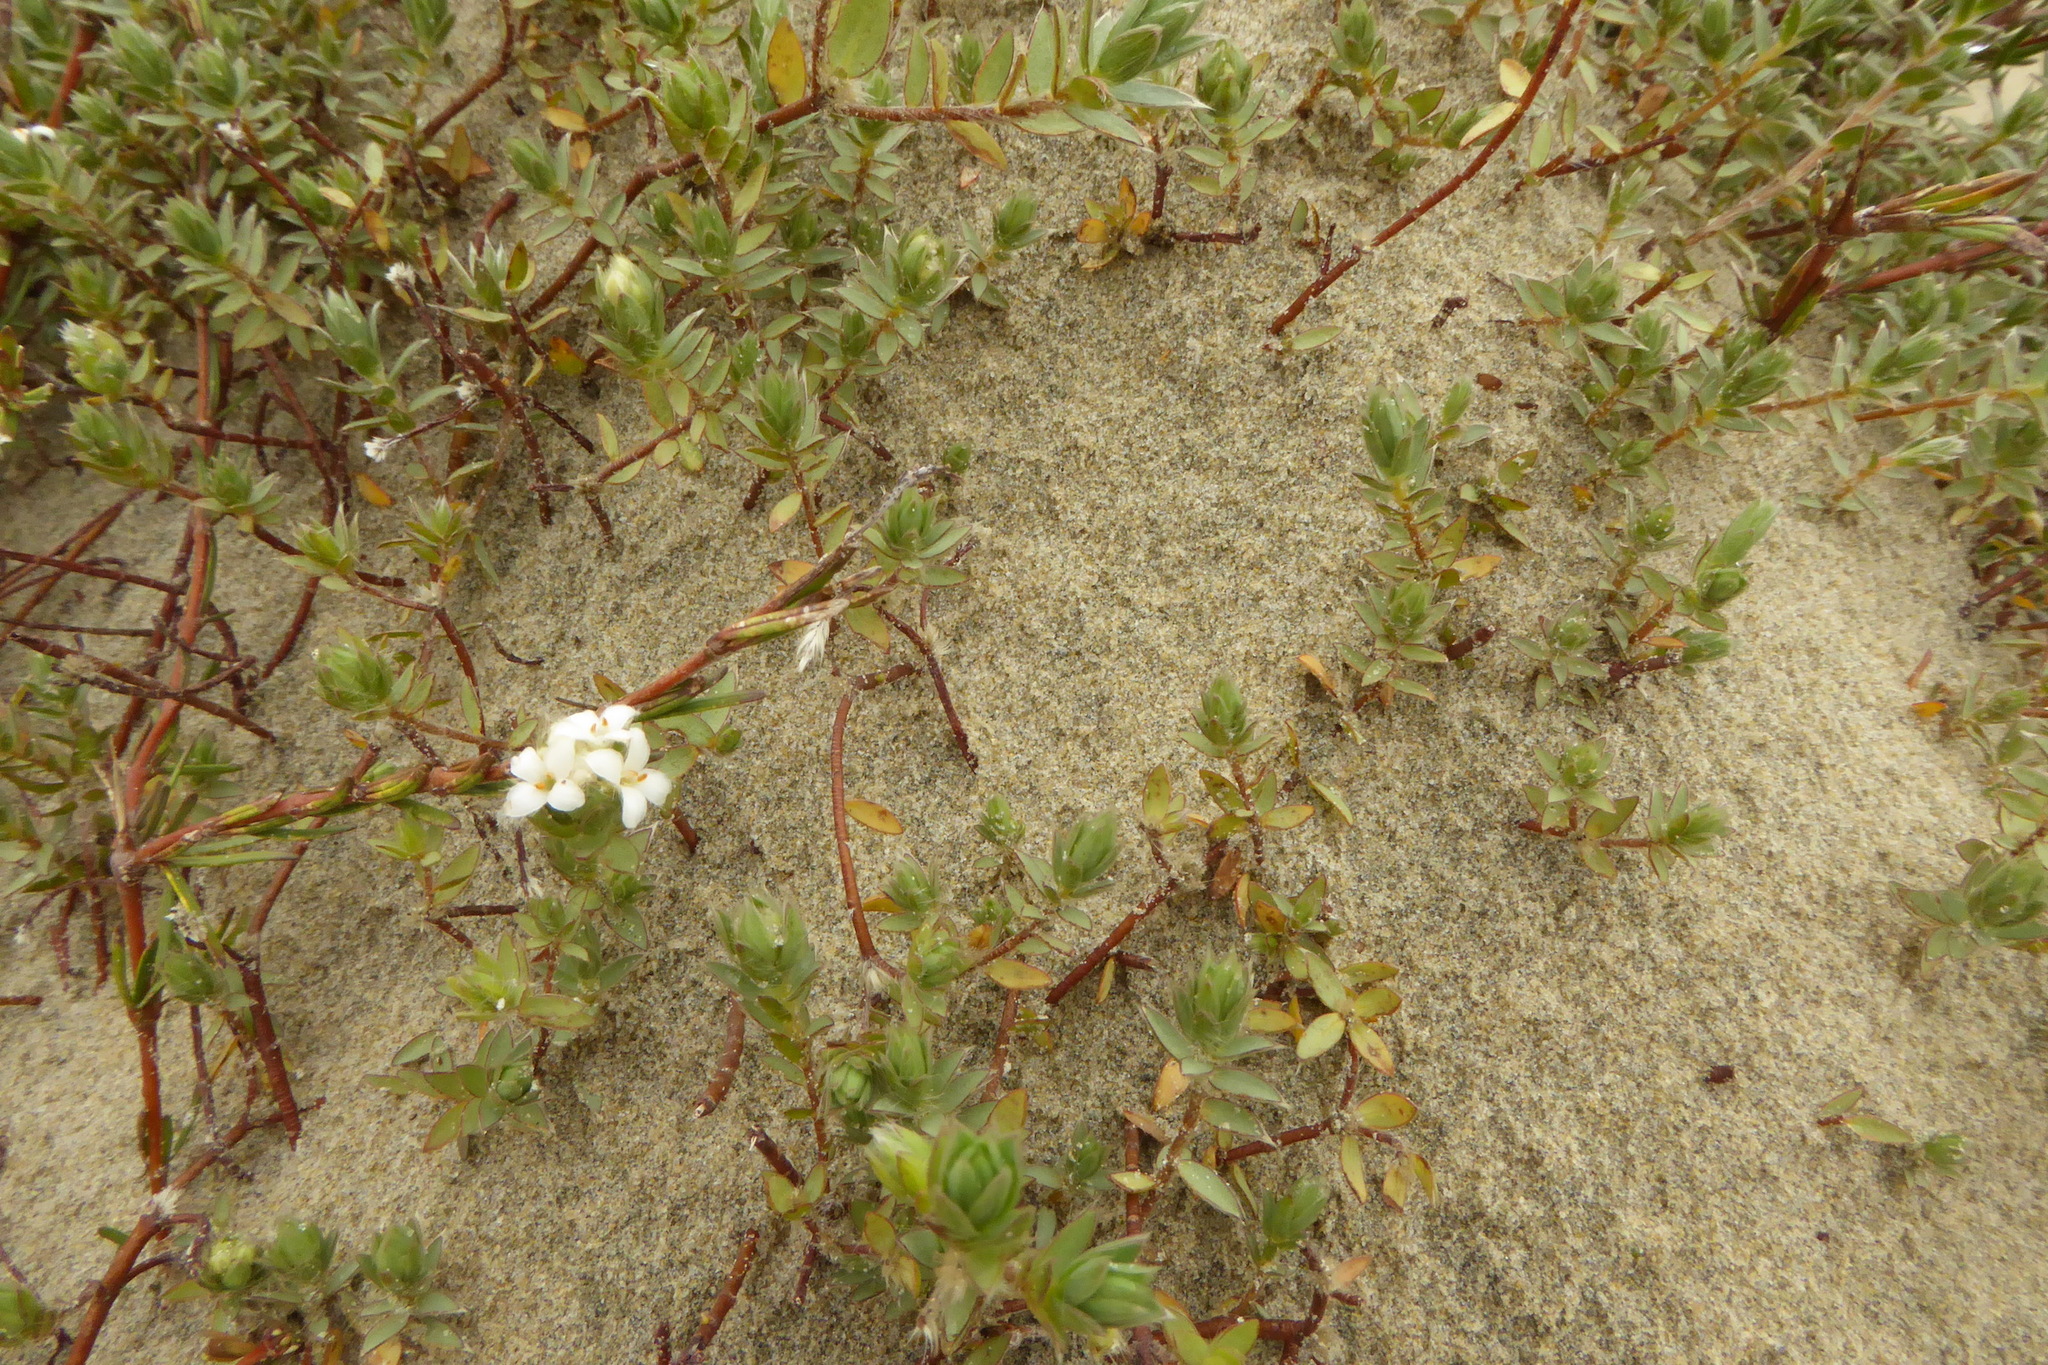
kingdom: Plantae
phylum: Tracheophyta
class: Magnoliopsida
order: Malvales
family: Thymelaeaceae
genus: Pimelea
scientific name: Pimelea lyallii
